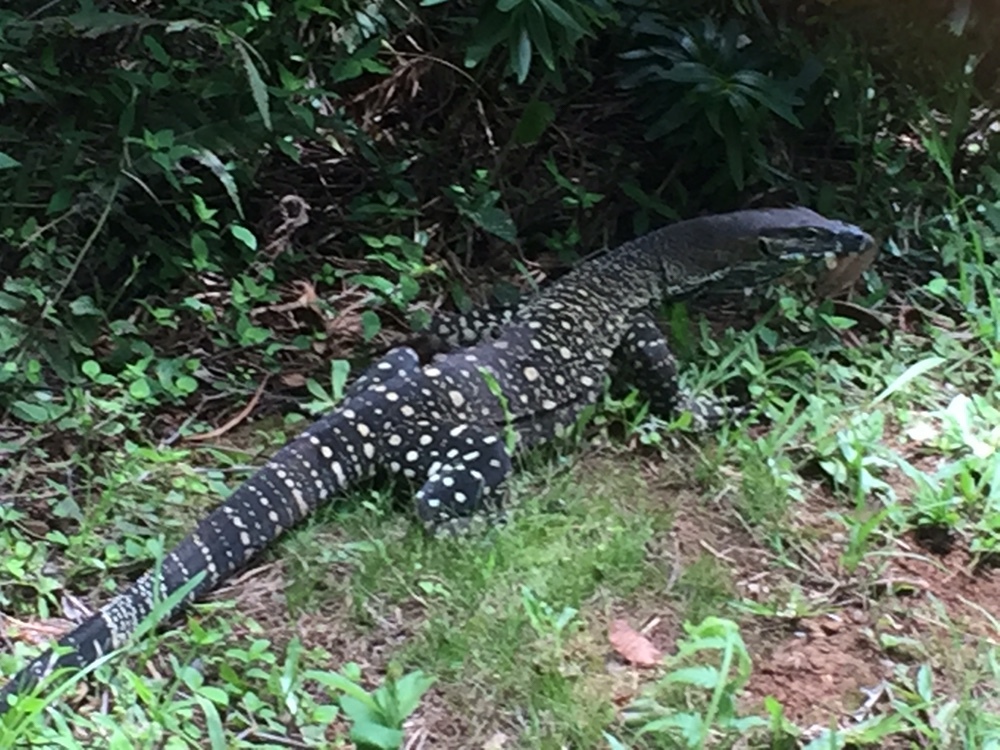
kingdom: Animalia
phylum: Chordata
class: Squamata
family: Varanidae
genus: Varanus
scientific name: Varanus varius
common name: Lace monitor
